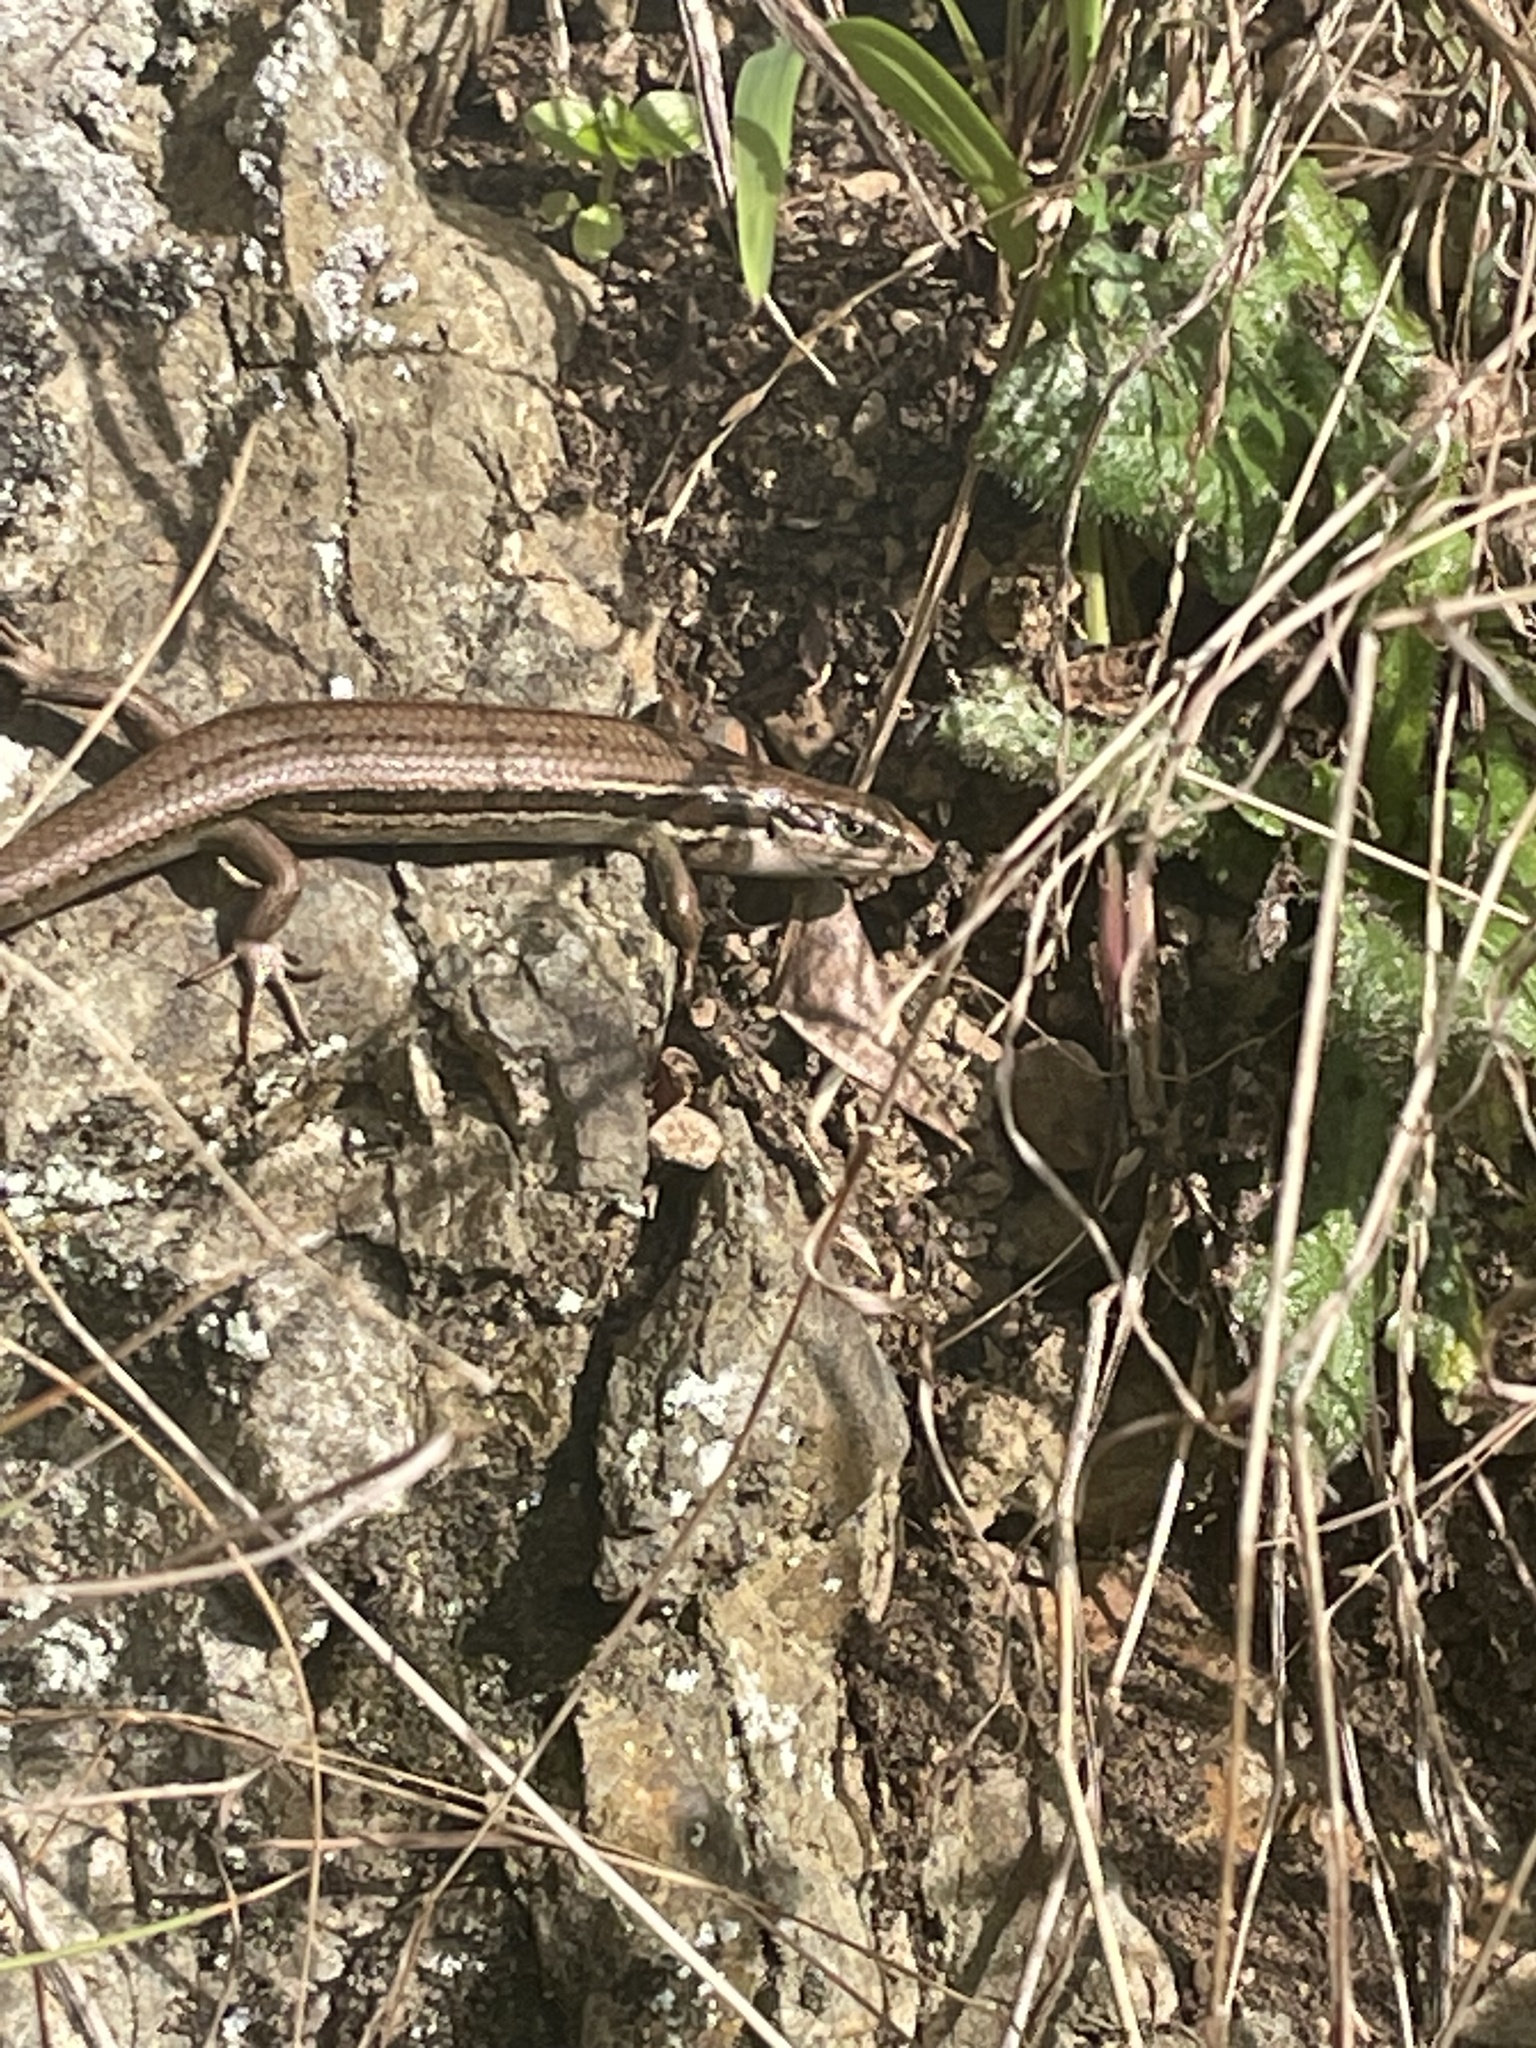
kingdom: Animalia
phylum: Chordata
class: Squamata
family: Scincidae
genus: Oligosoma
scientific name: Oligosoma polychroma
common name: Common new zealand skink
